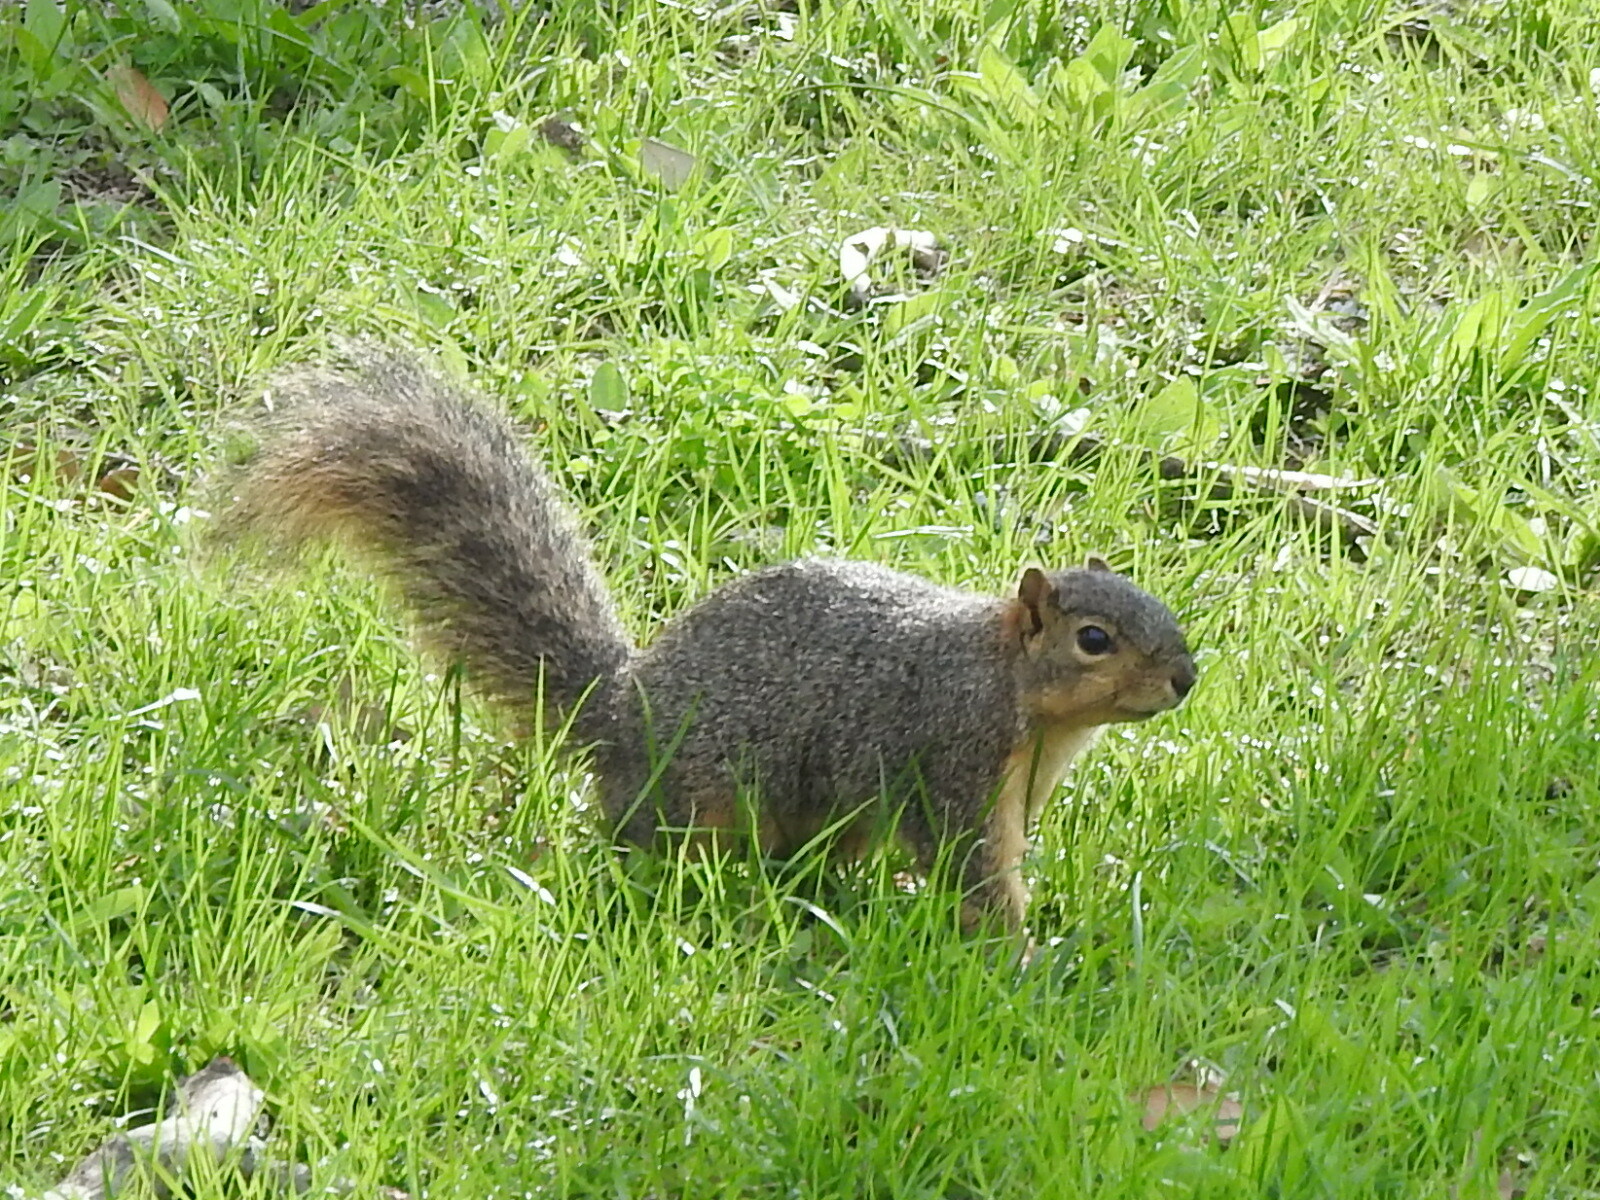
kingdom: Animalia
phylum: Chordata
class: Mammalia
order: Rodentia
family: Sciuridae
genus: Sciurus
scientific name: Sciurus niger
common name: Fox squirrel
